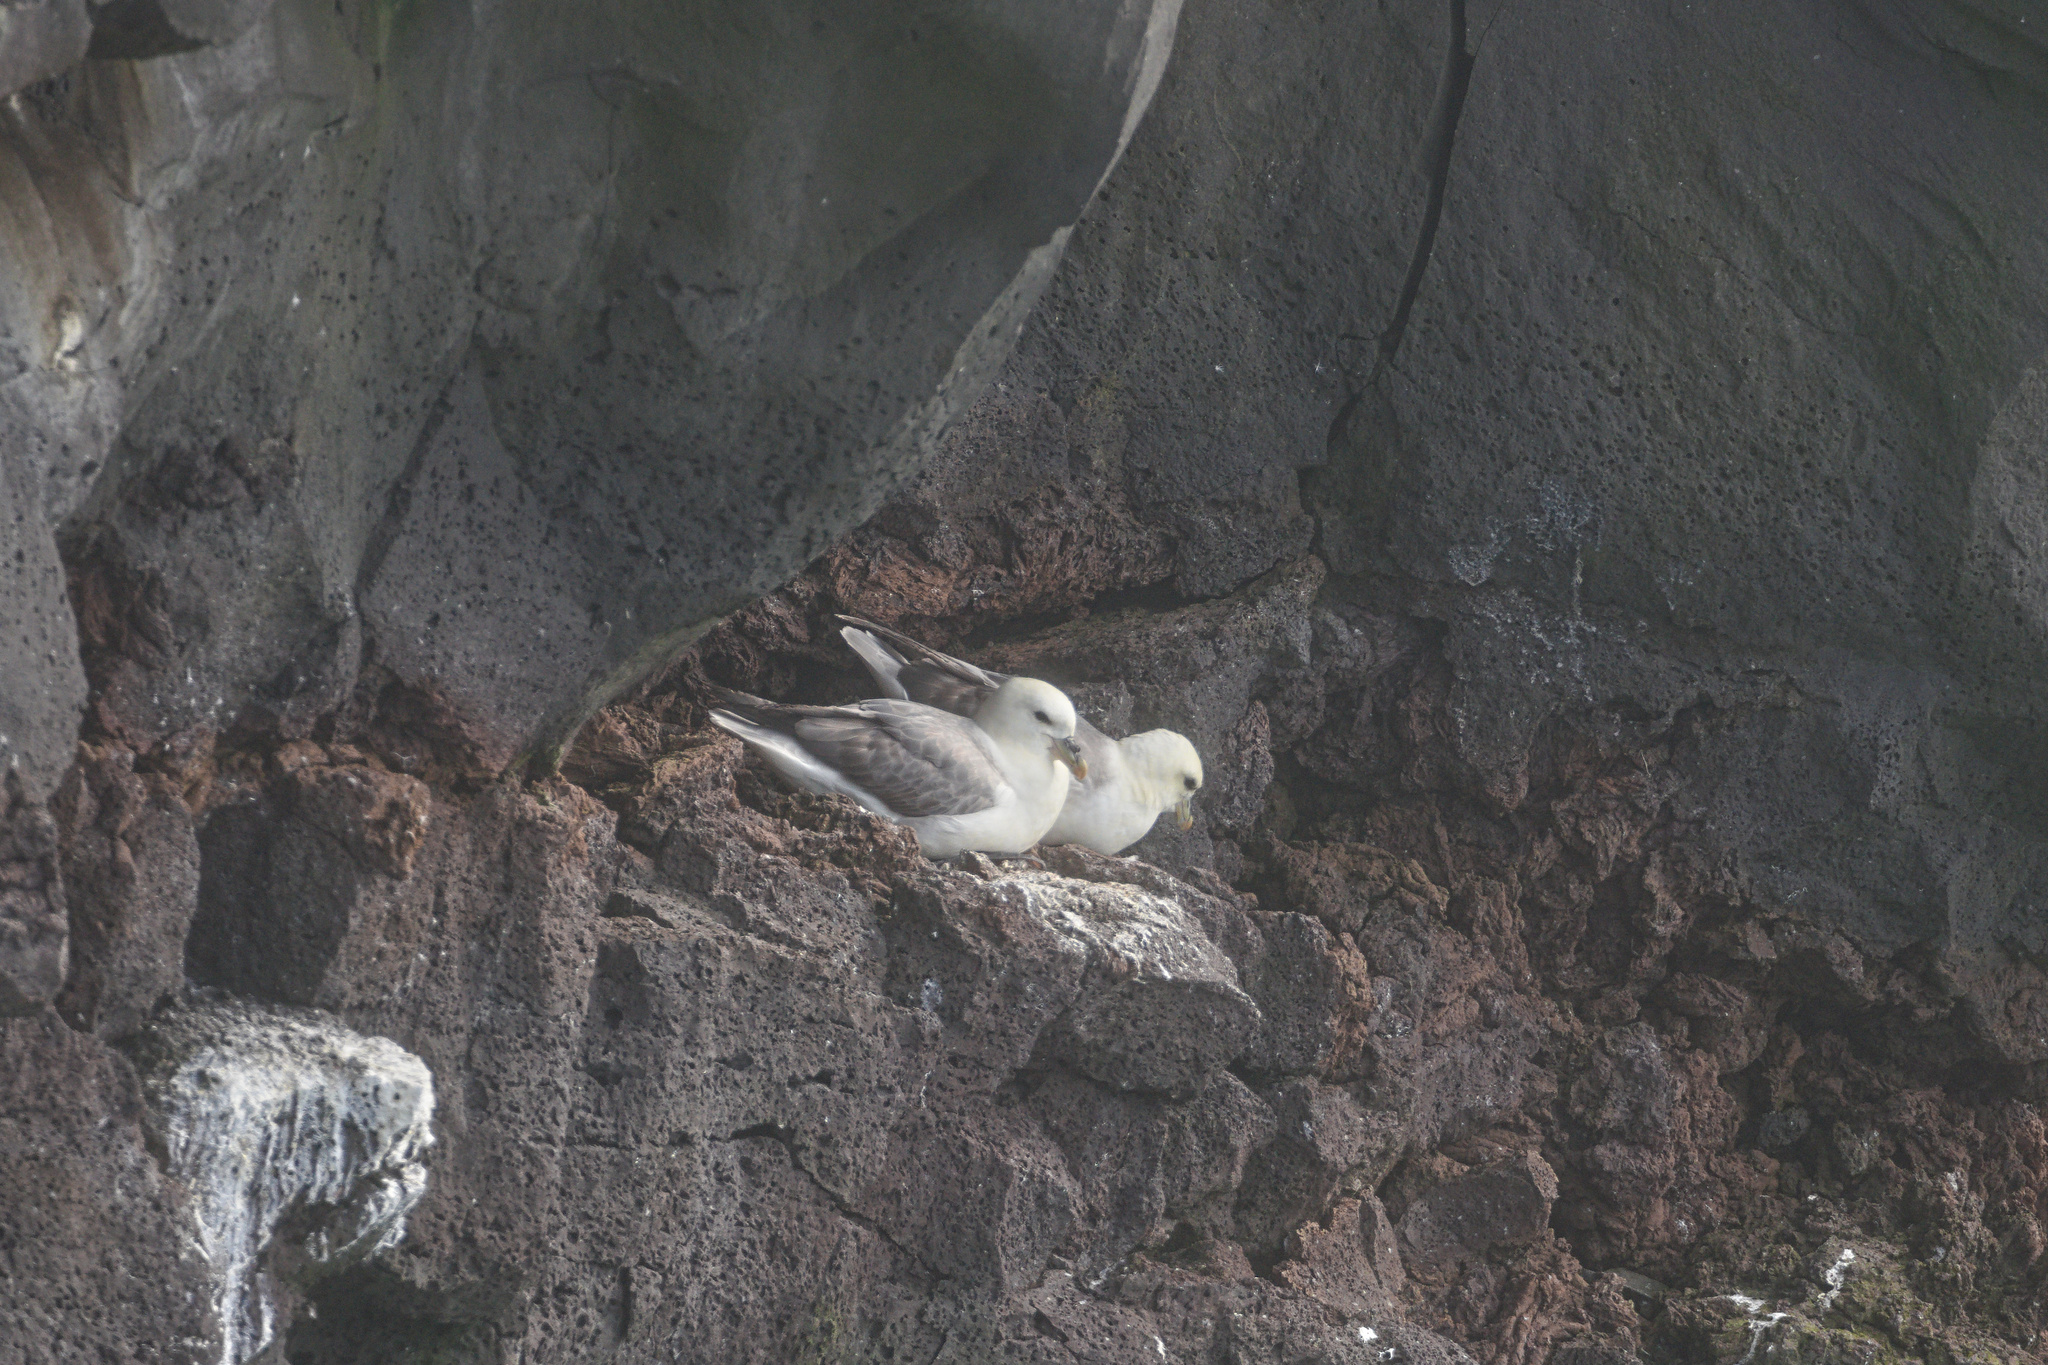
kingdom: Animalia
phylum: Chordata
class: Aves
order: Procellariiformes
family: Procellariidae
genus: Fulmarus
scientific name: Fulmarus glacialis
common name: Northern fulmar
